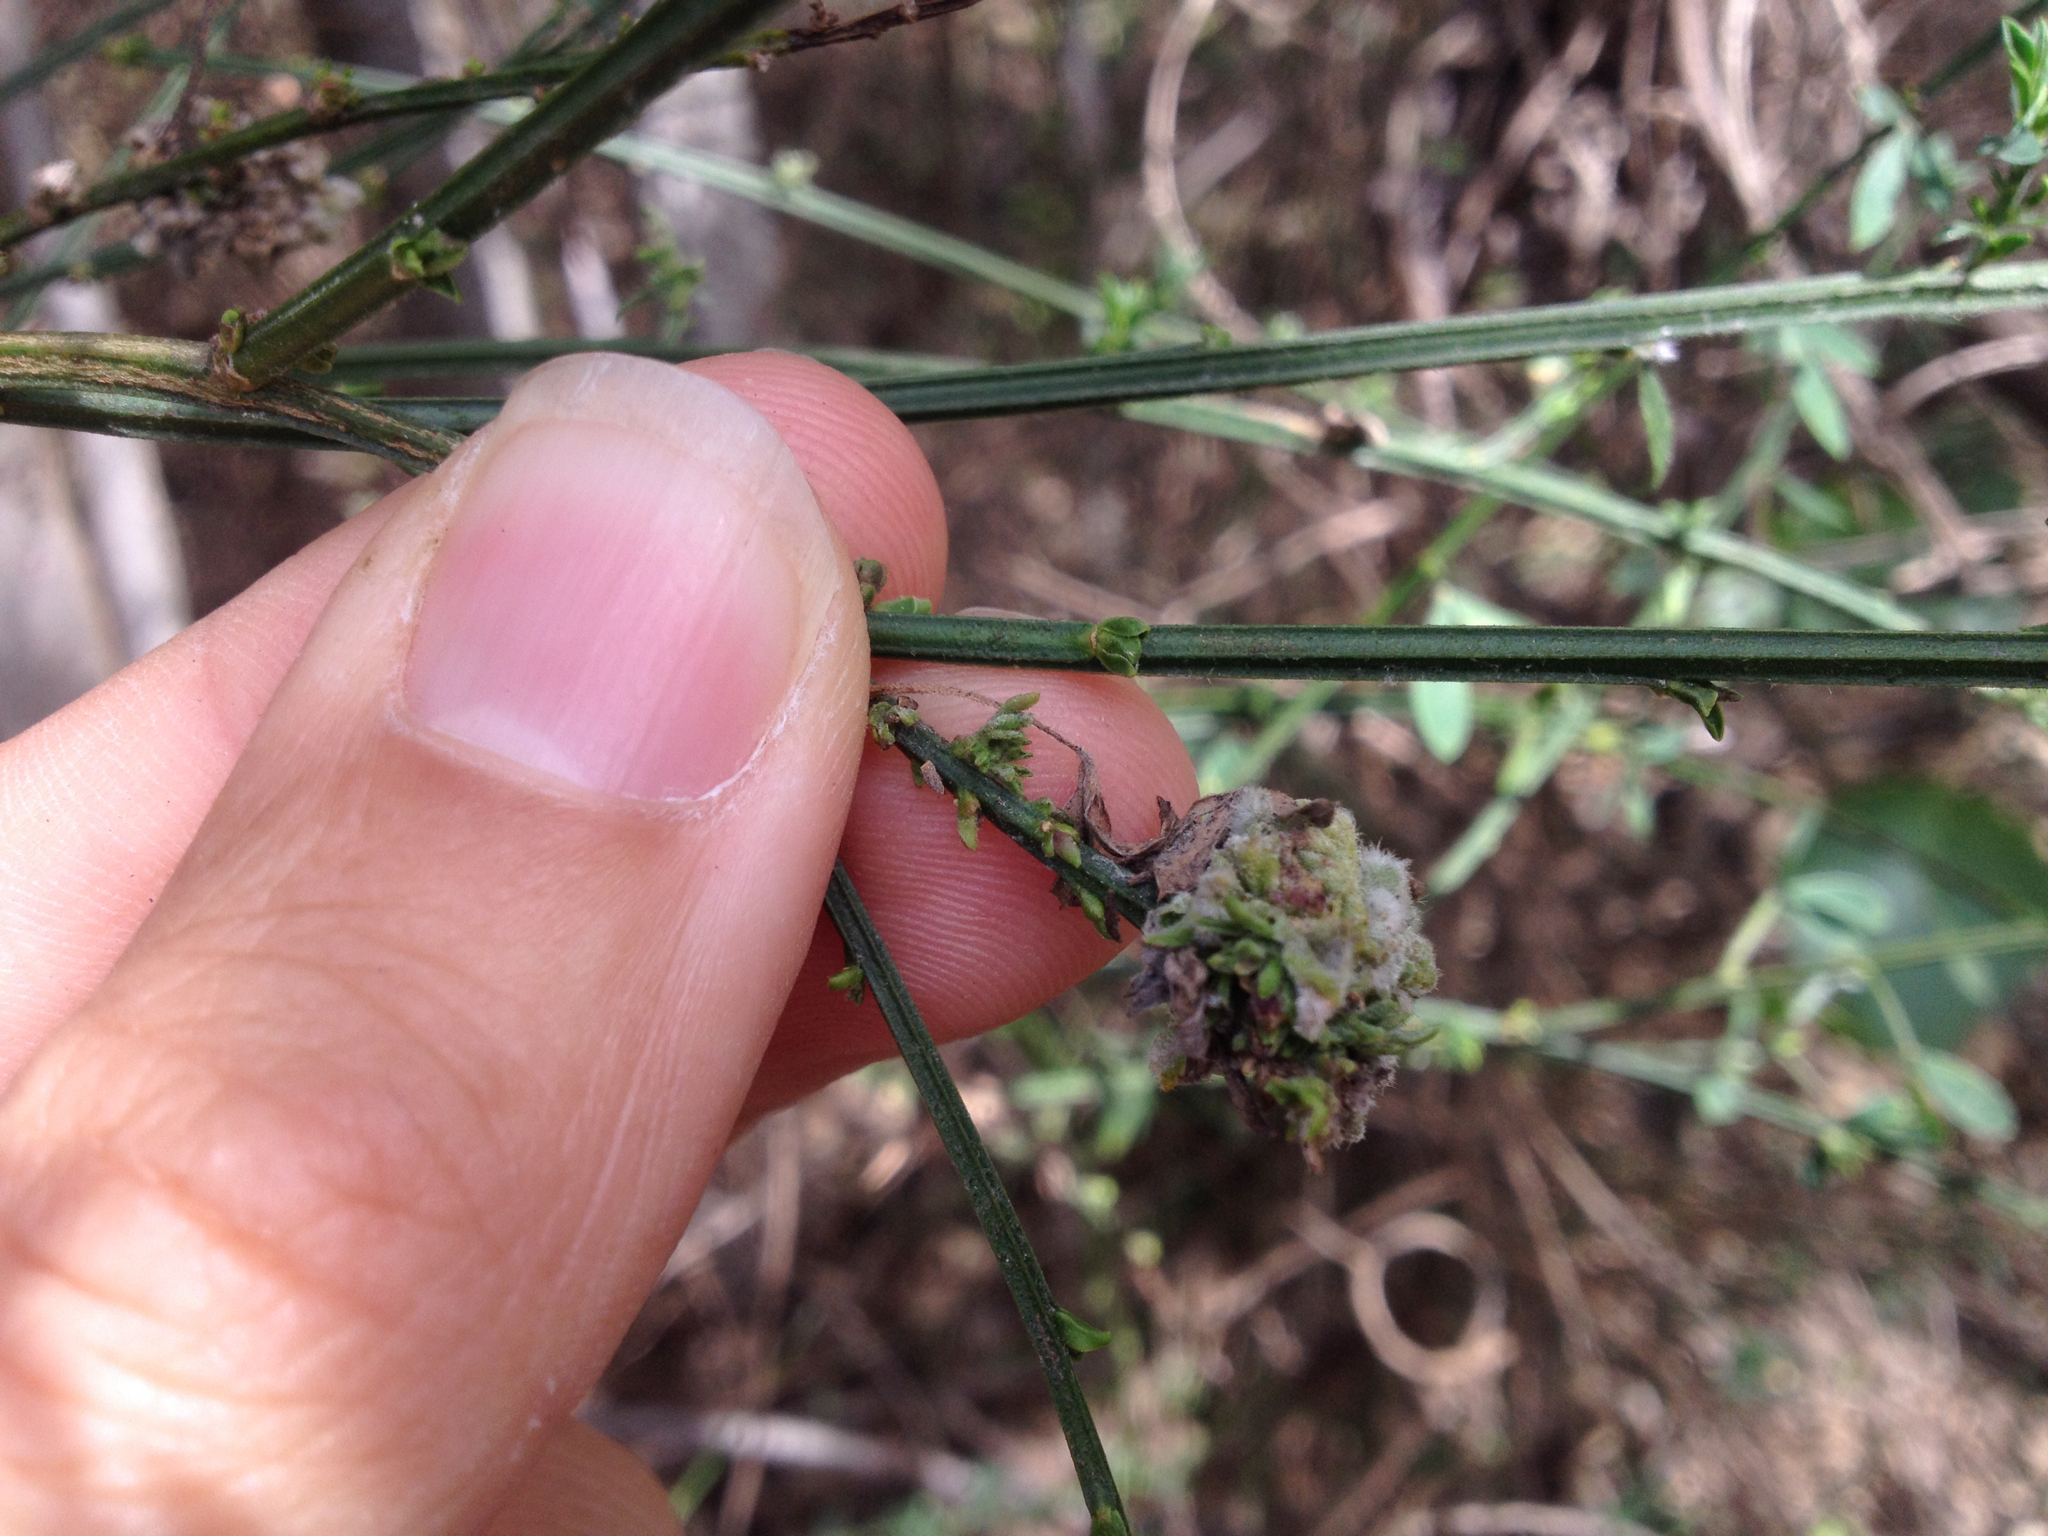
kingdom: Animalia
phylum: Arthropoda
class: Arachnida
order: Trombidiformes
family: Eriophyidae
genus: Aceria
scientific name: Aceria genistae
